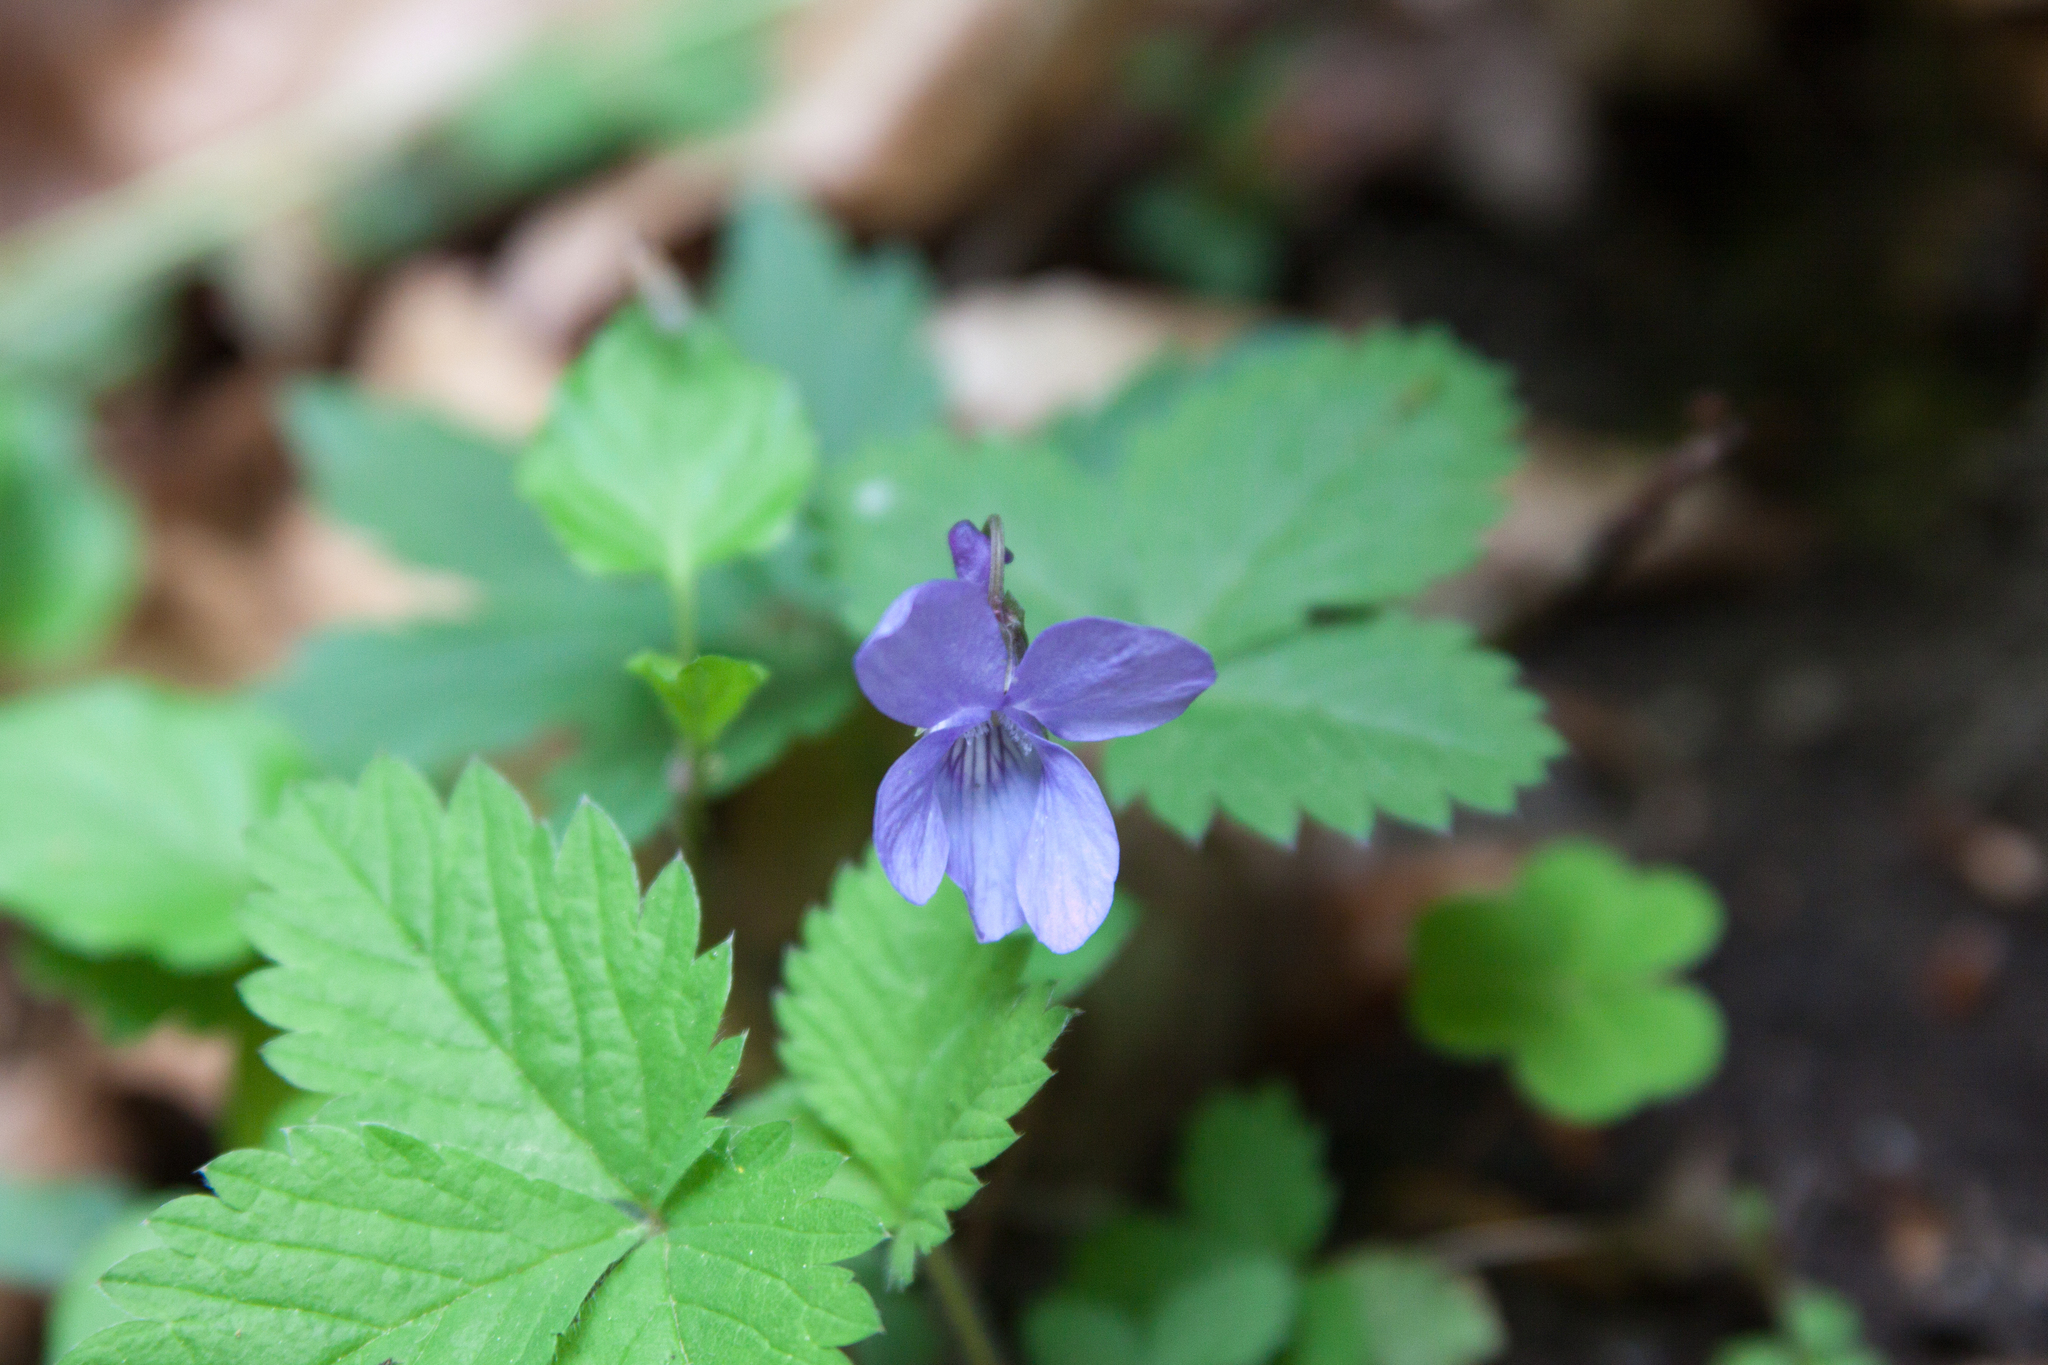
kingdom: Plantae
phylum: Tracheophyta
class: Magnoliopsida
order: Malpighiales
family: Violaceae
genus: Viola
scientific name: Viola reichenbachiana
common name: Early dog-violet
